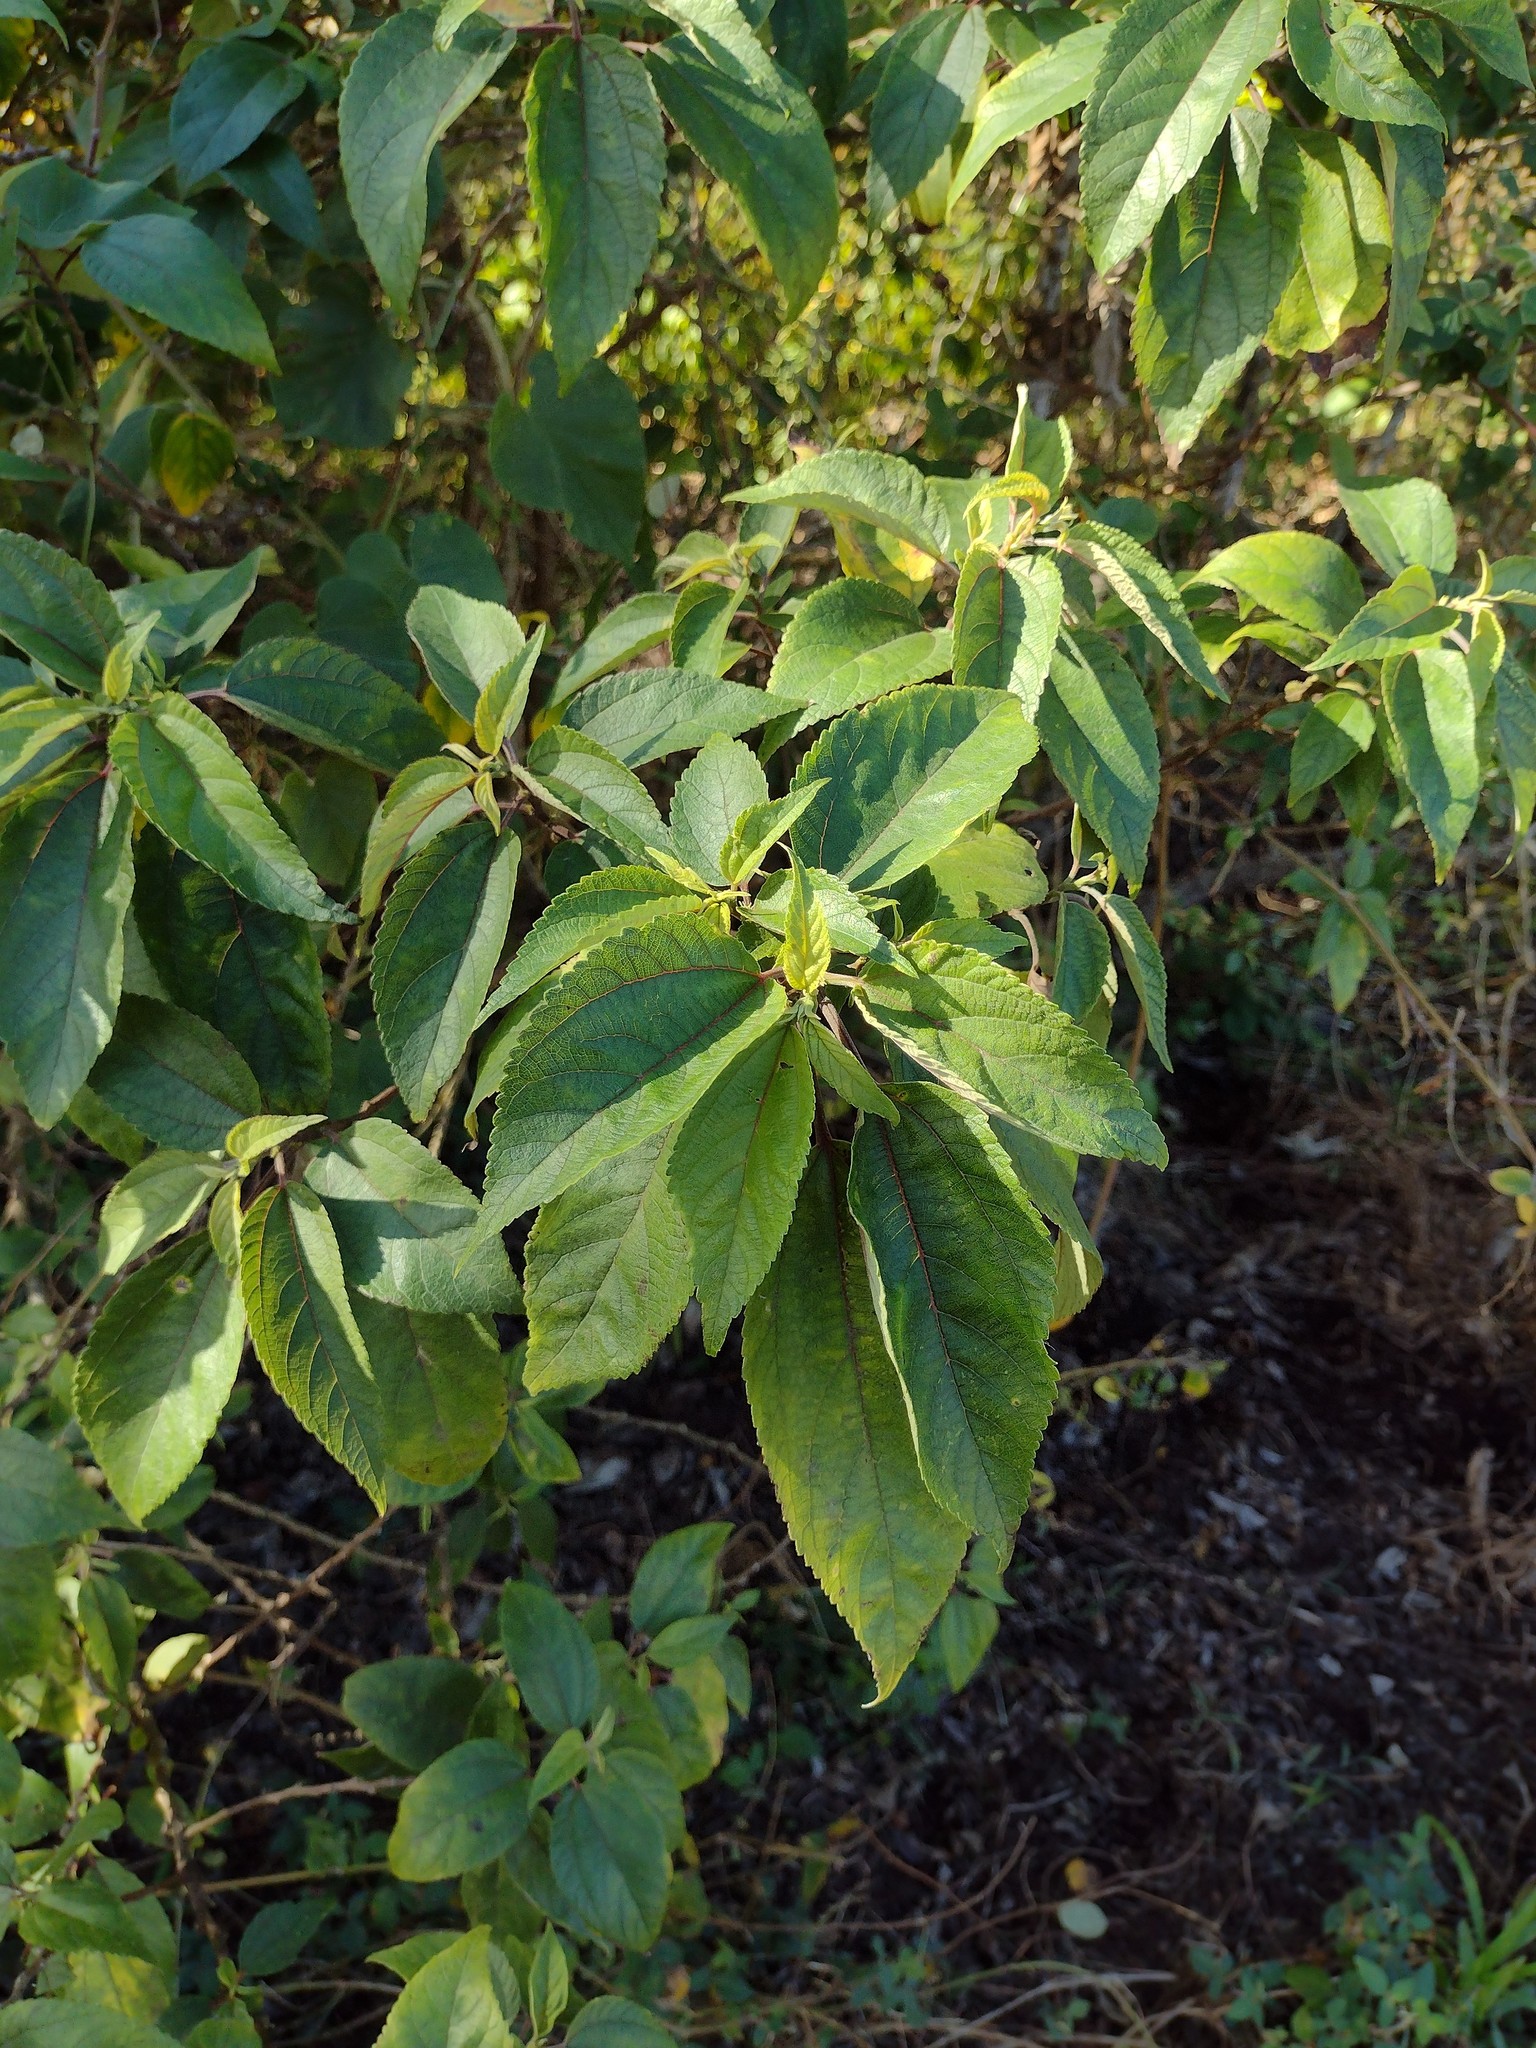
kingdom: Plantae
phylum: Tracheophyta
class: Magnoliopsida
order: Rosales
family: Urticaceae
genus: Pipturus
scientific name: Pipturus albidus
